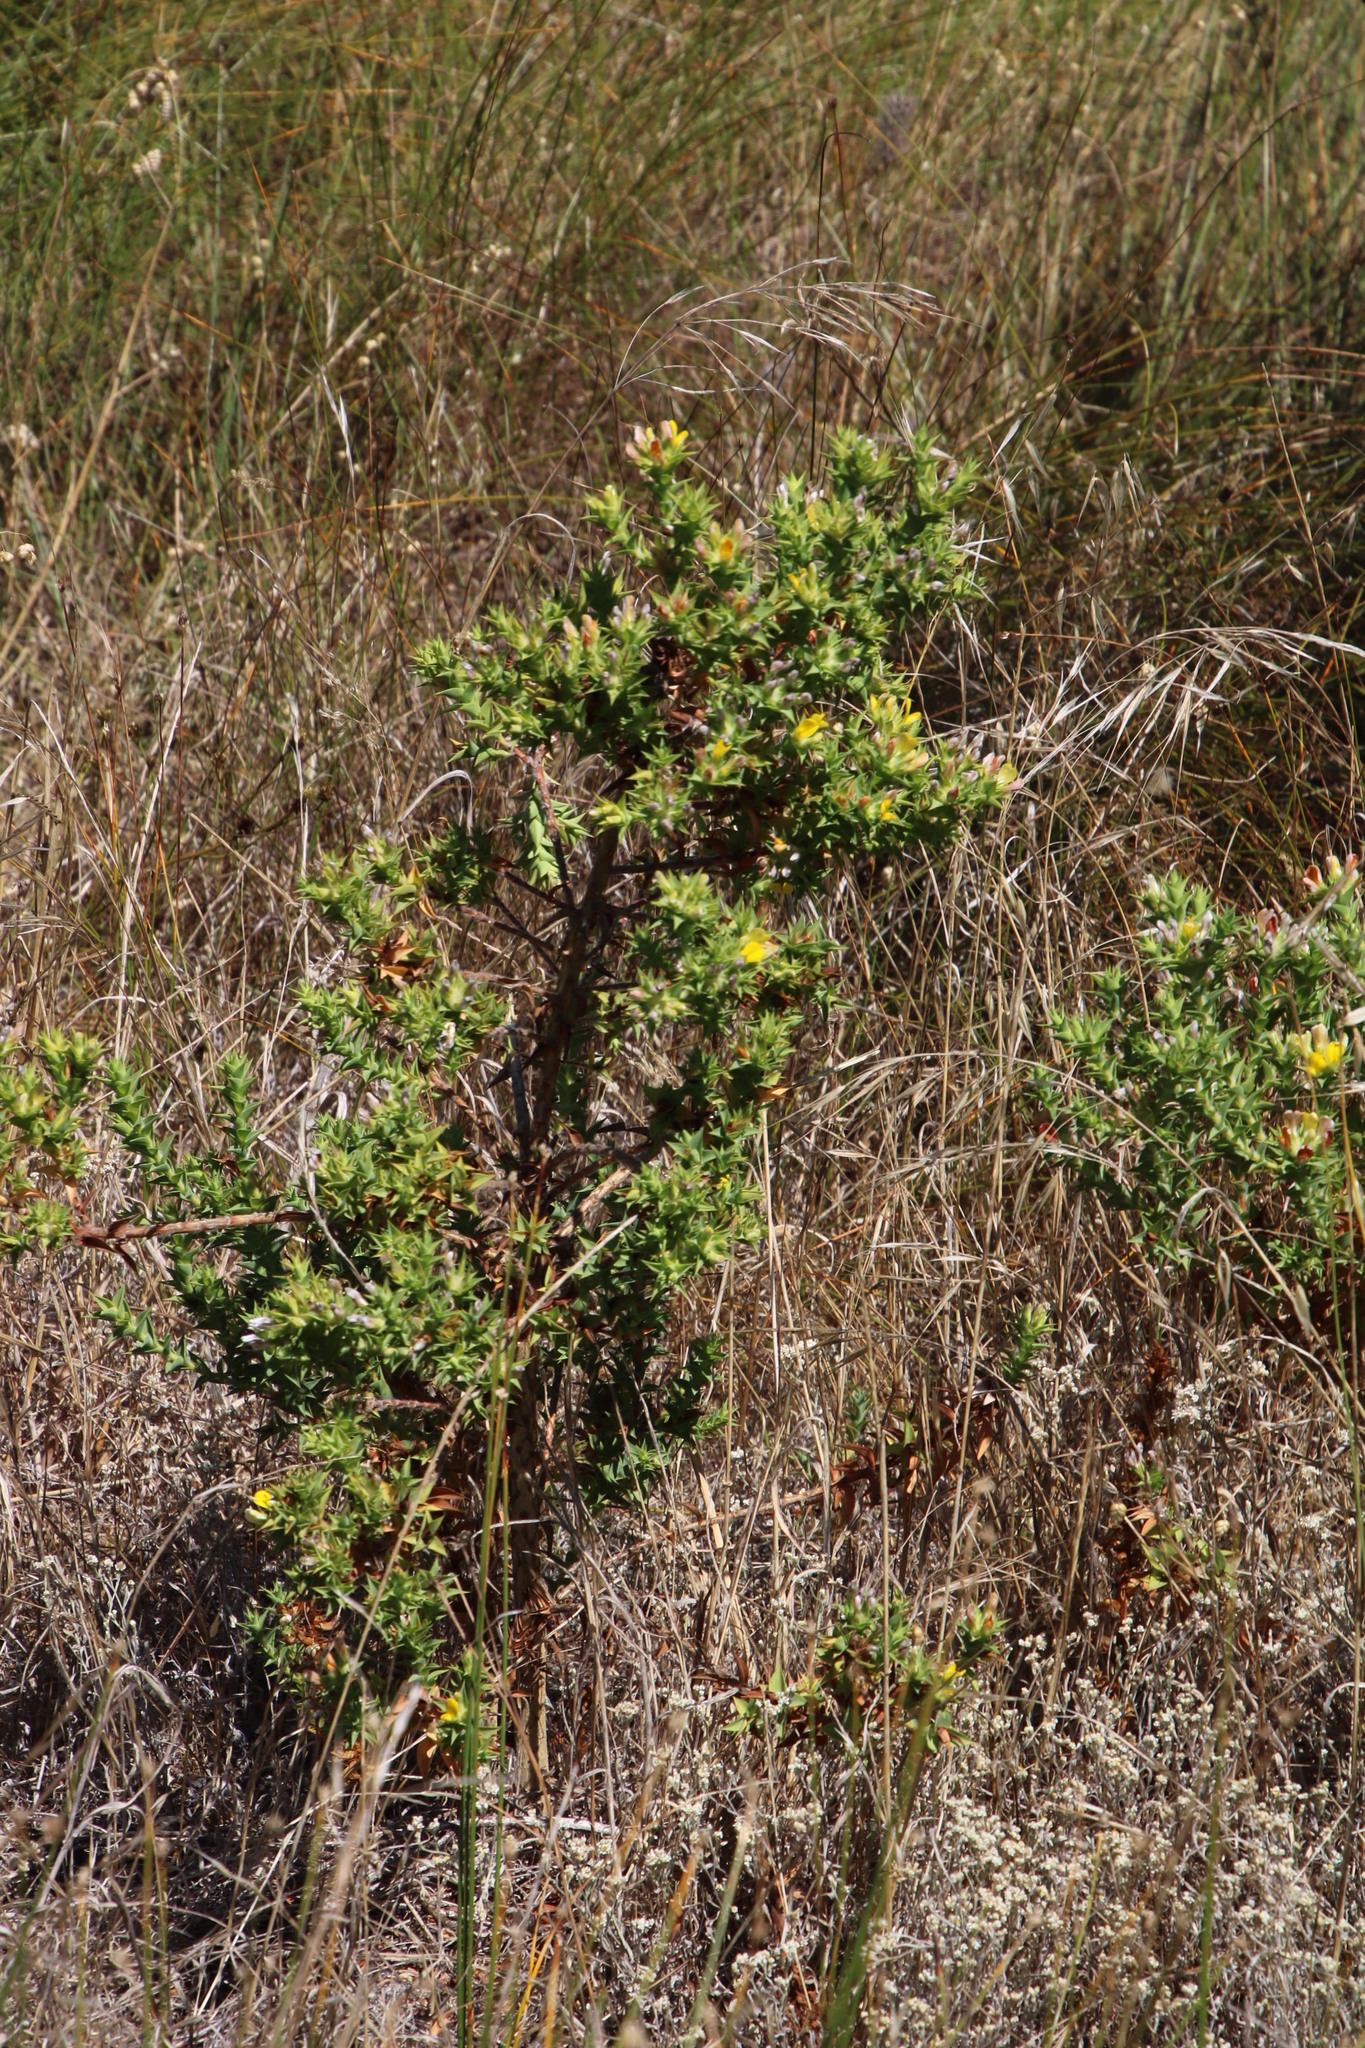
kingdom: Plantae
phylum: Tracheophyta
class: Magnoliopsida
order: Fabales
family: Fabaceae
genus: Aspalathus
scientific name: Aspalathus cordata
